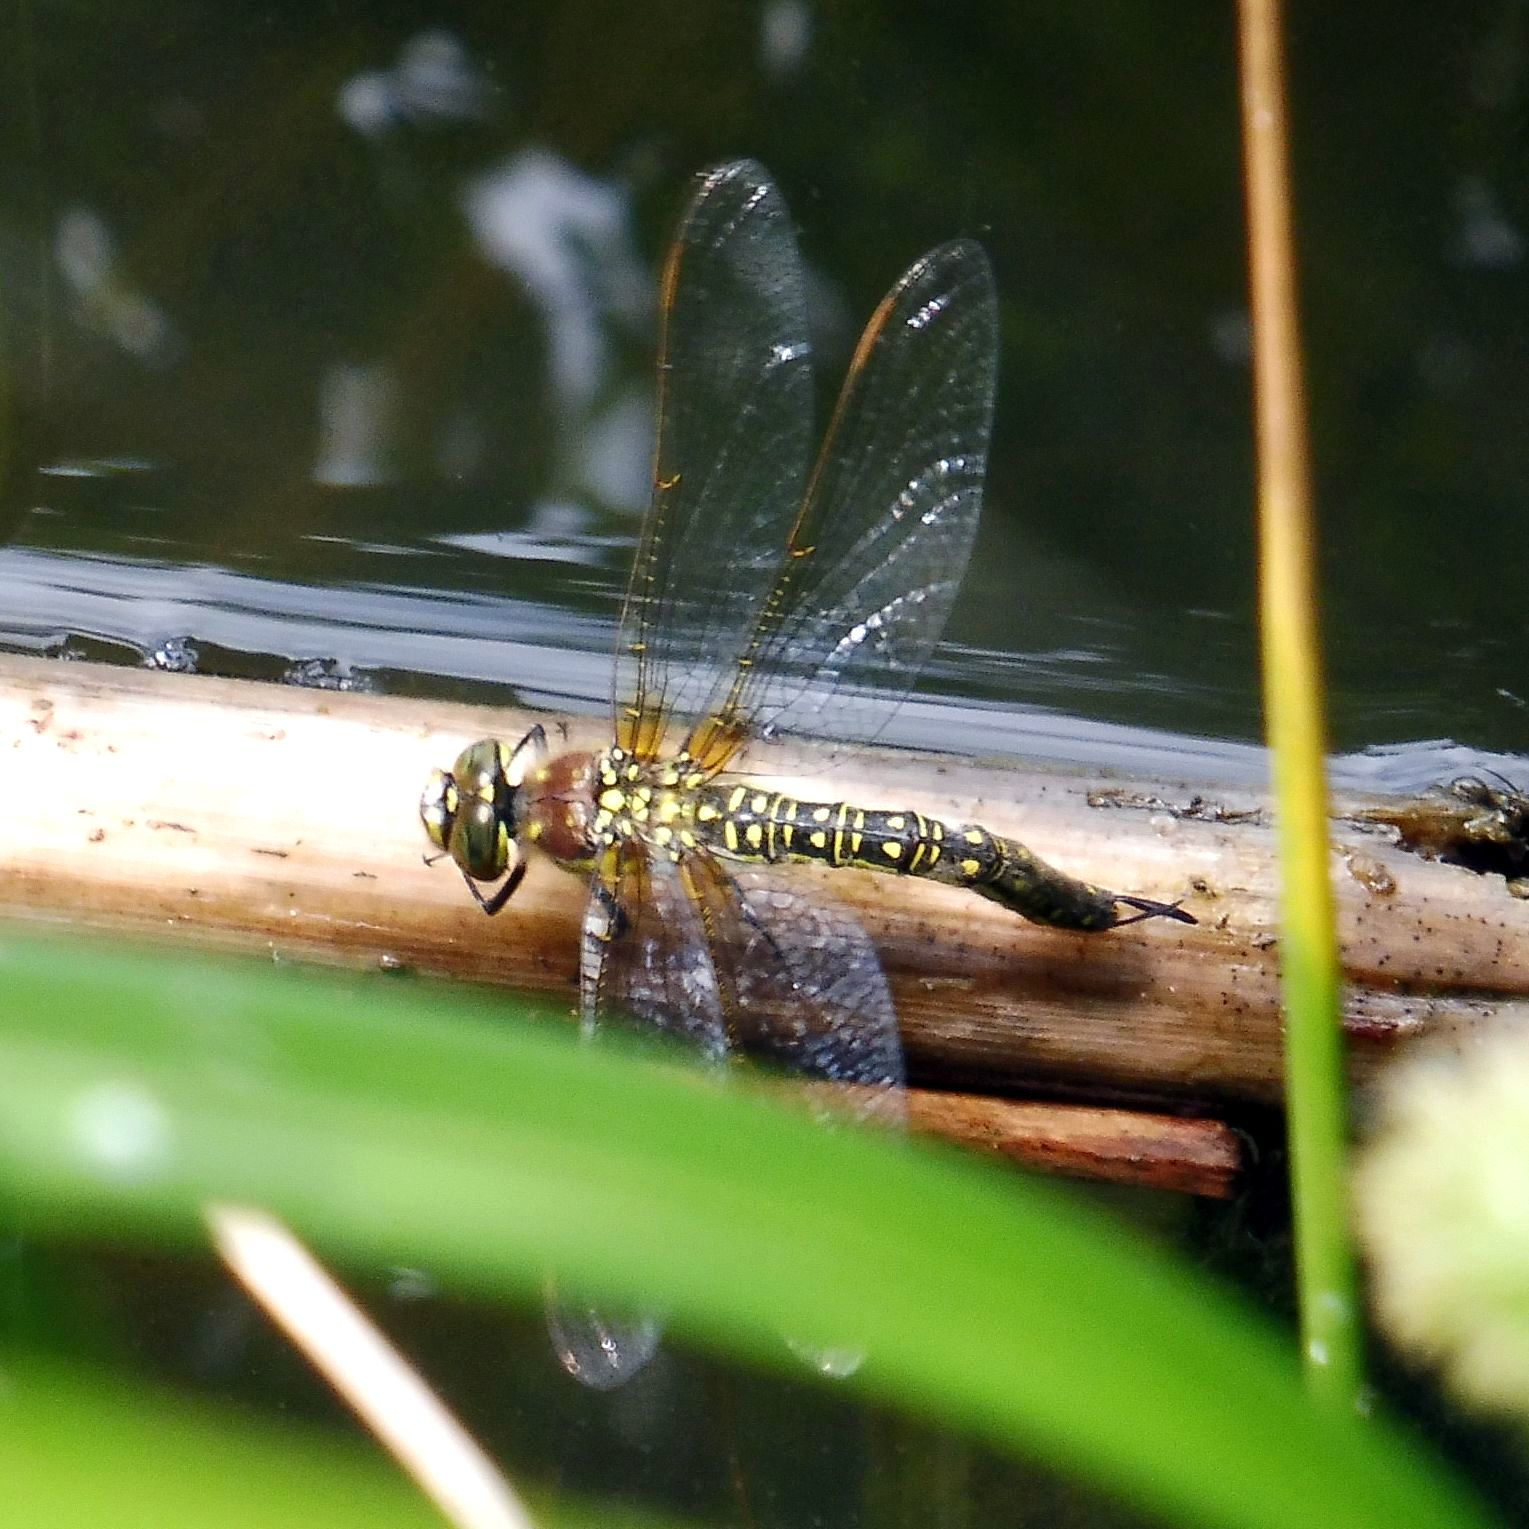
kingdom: Animalia
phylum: Arthropoda
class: Insecta
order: Odonata
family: Aeshnidae
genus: Brachytron
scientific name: Brachytron pratense
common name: Hairy hawker
